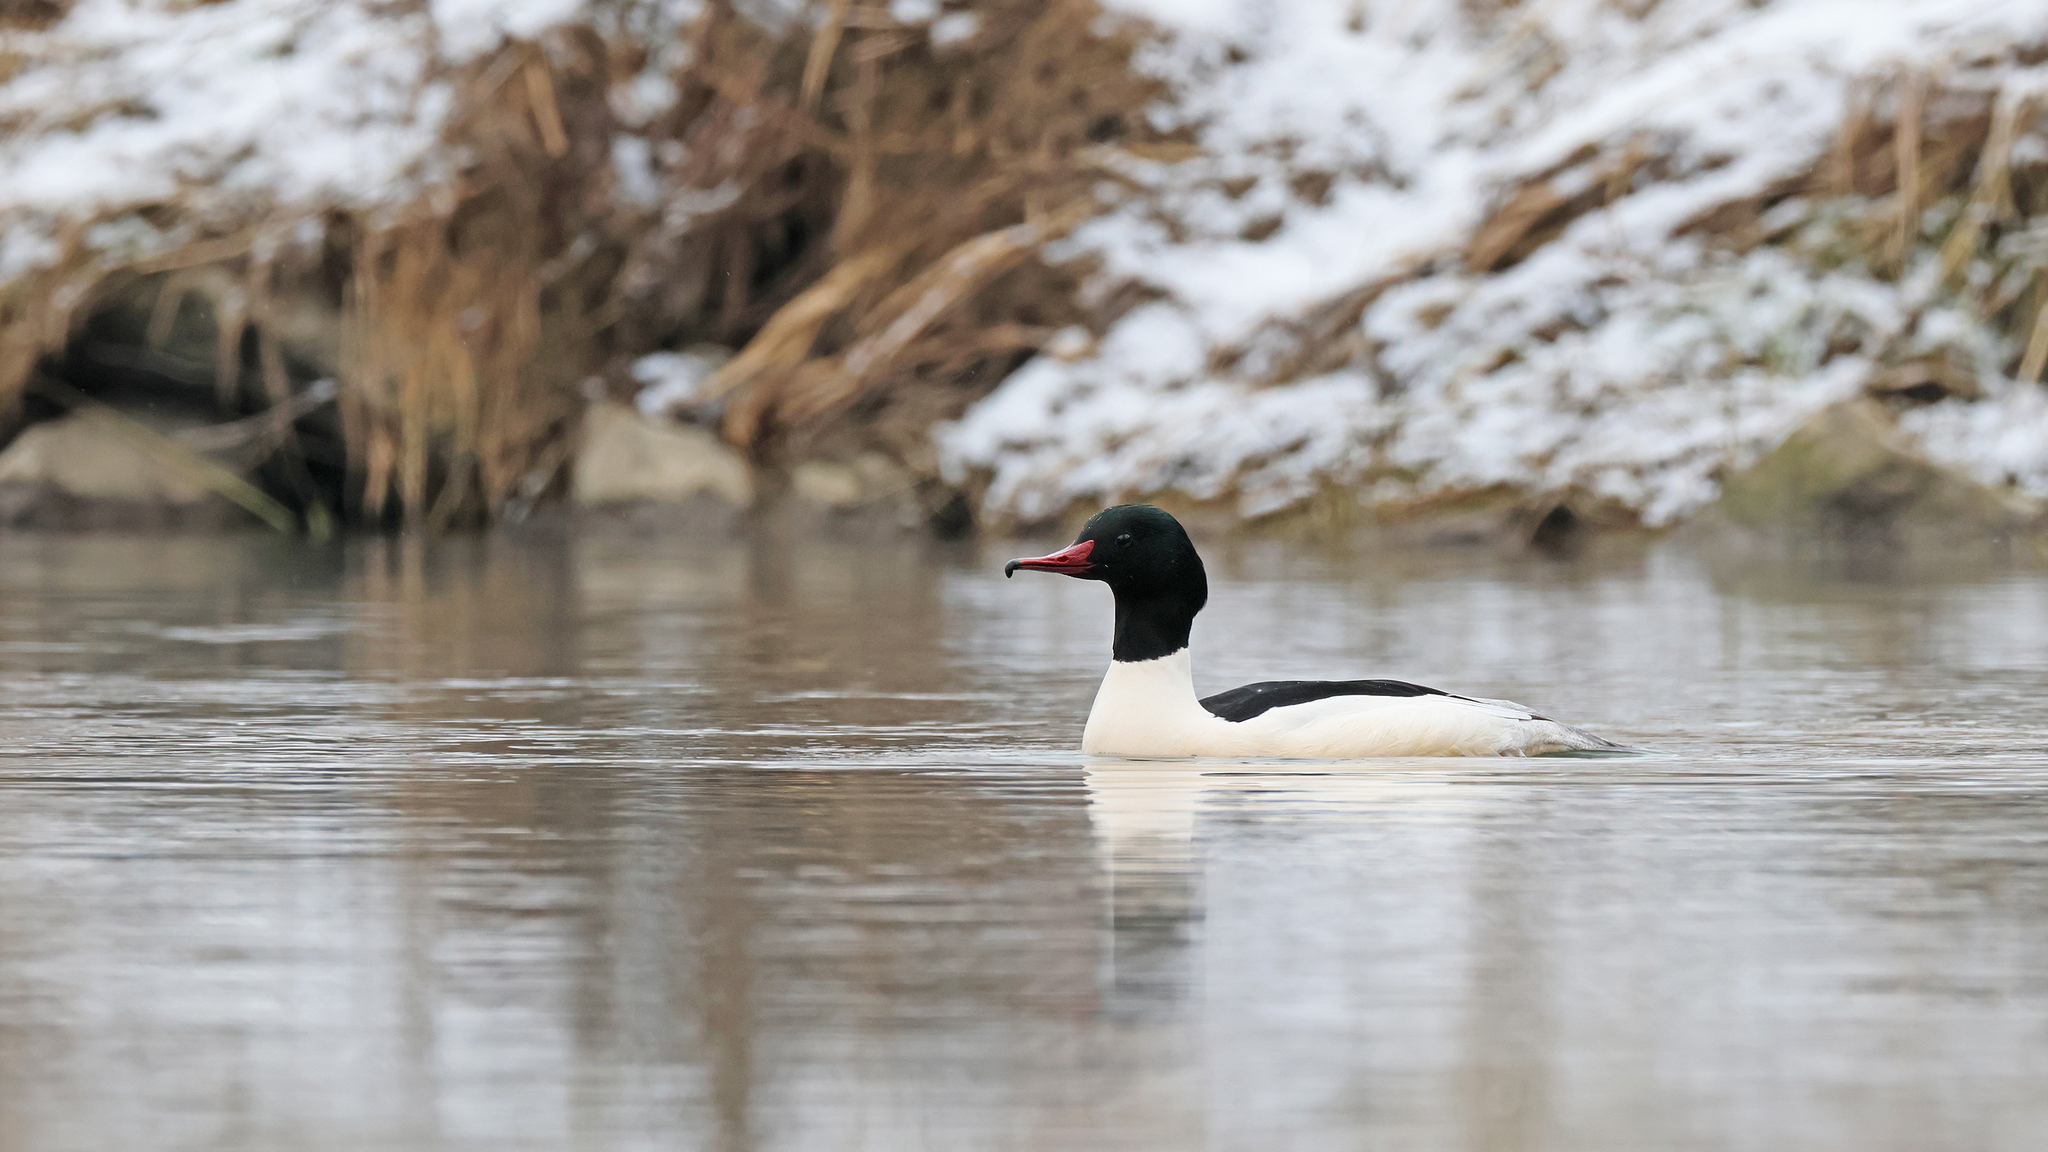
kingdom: Animalia
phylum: Chordata
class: Aves
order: Anseriformes
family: Anatidae
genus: Mergus
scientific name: Mergus merganser
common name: Common merganser
